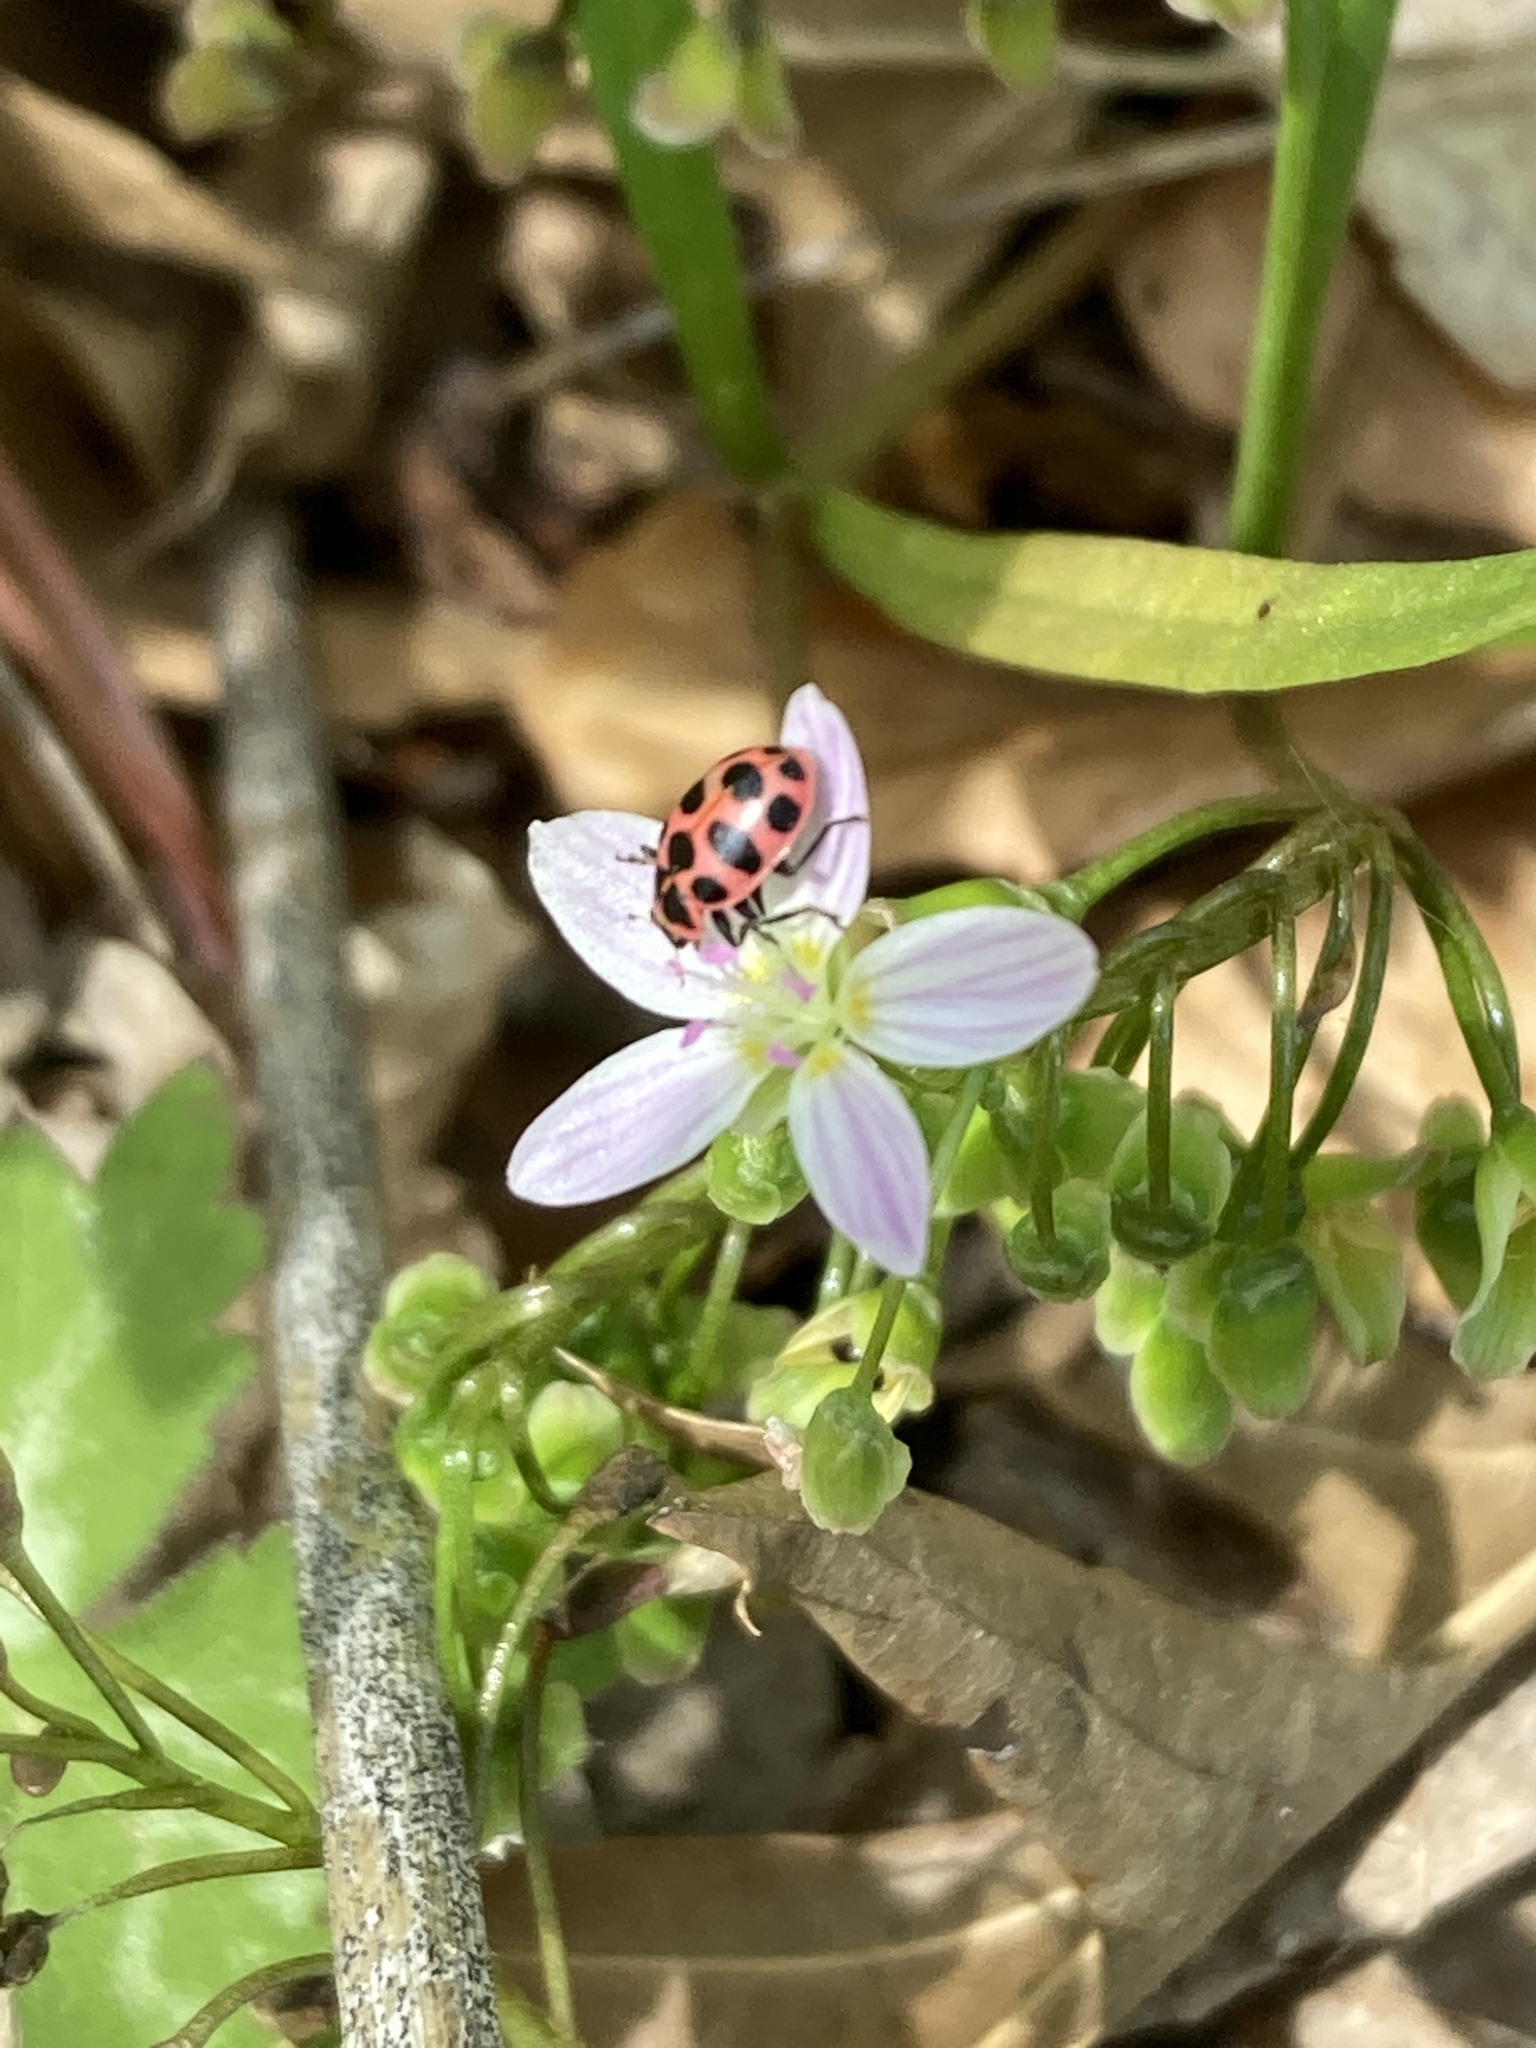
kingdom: Animalia
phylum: Arthropoda
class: Insecta
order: Coleoptera
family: Coccinellidae
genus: Coleomegilla
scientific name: Coleomegilla maculata
